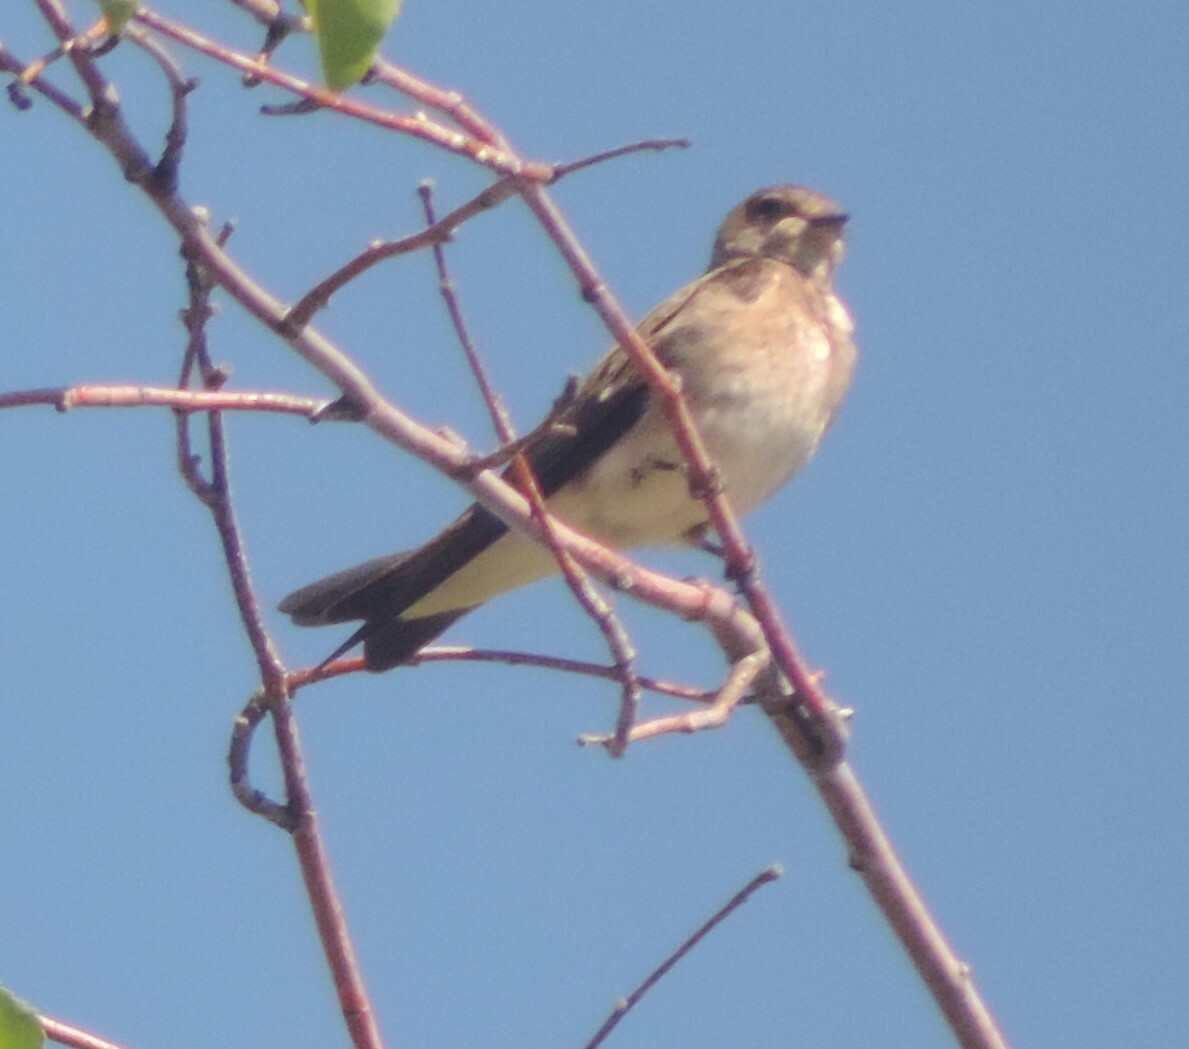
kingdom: Animalia
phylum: Chordata
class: Aves
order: Passeriformes
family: Hirundinidae
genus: Stelgidopteryx
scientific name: Stelgidopteryx serripennis
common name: Northern rough-winged swallow
